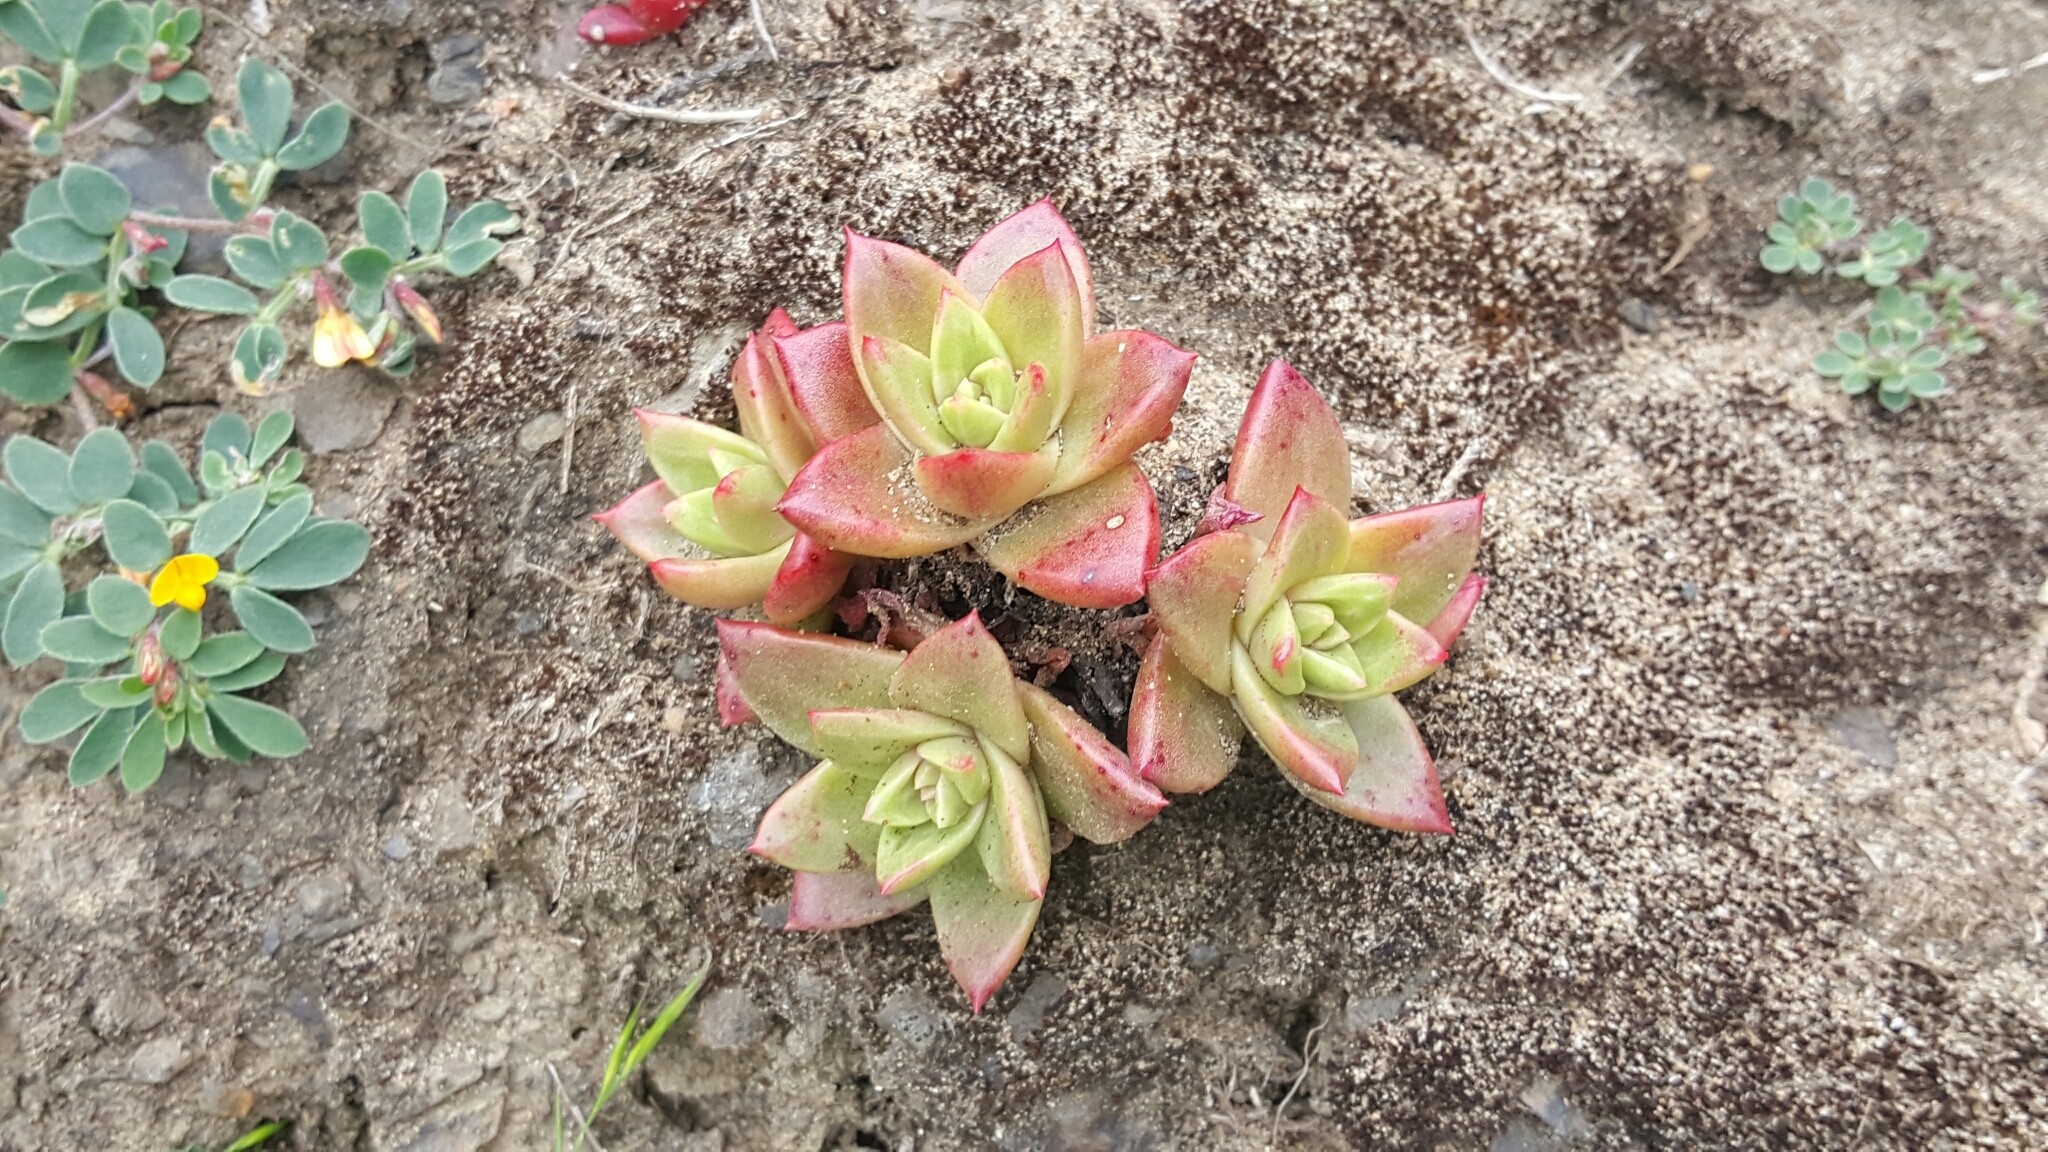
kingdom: Plantae
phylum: Tracheophyta
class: Magnoliopsida
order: Saxifragales
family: Crassulaceae
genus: Dudleya
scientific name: Dudleya farinosa
